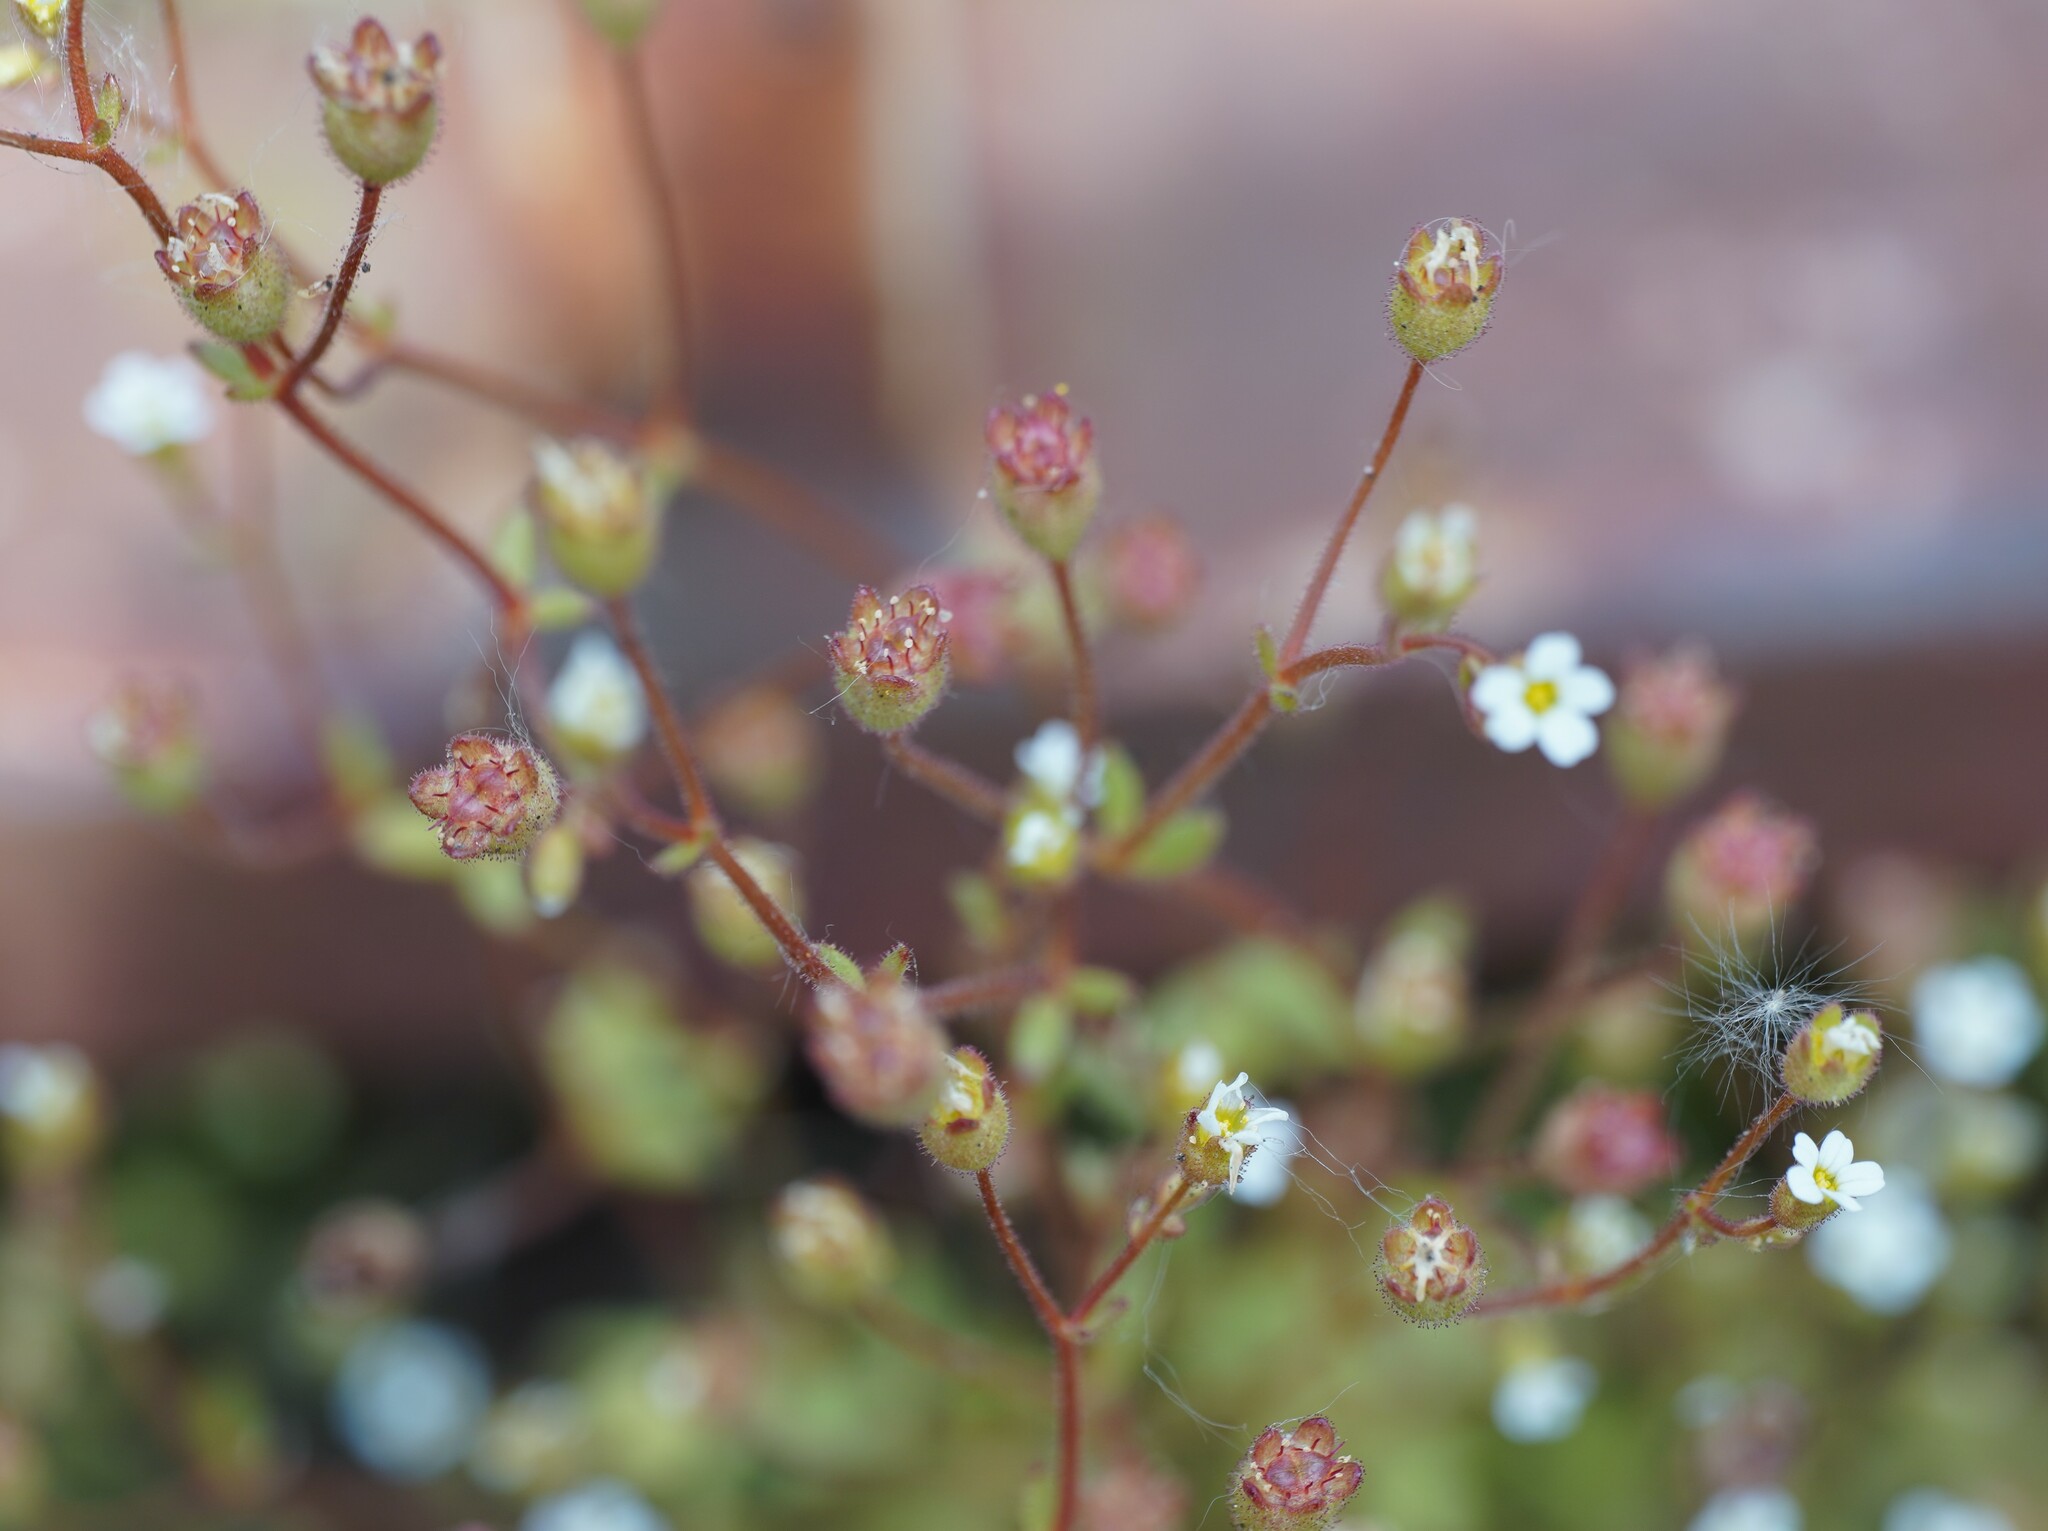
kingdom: Plantae
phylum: Tracheophyta
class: Magnoliopsida
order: Saxifragales
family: Saxifragaceae
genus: Saxifraga
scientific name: Saxifraga tridactylites
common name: Rue-leaved saxifrage
